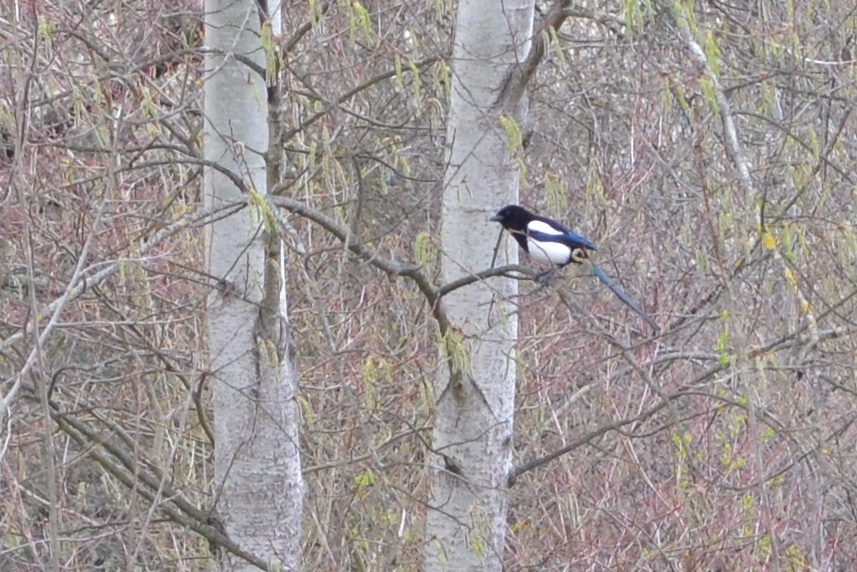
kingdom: Animalia
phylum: Chordata
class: Aves
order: Passeriformes
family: Corvidae
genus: Pica
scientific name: Pica pica
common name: Eurasian magpie
